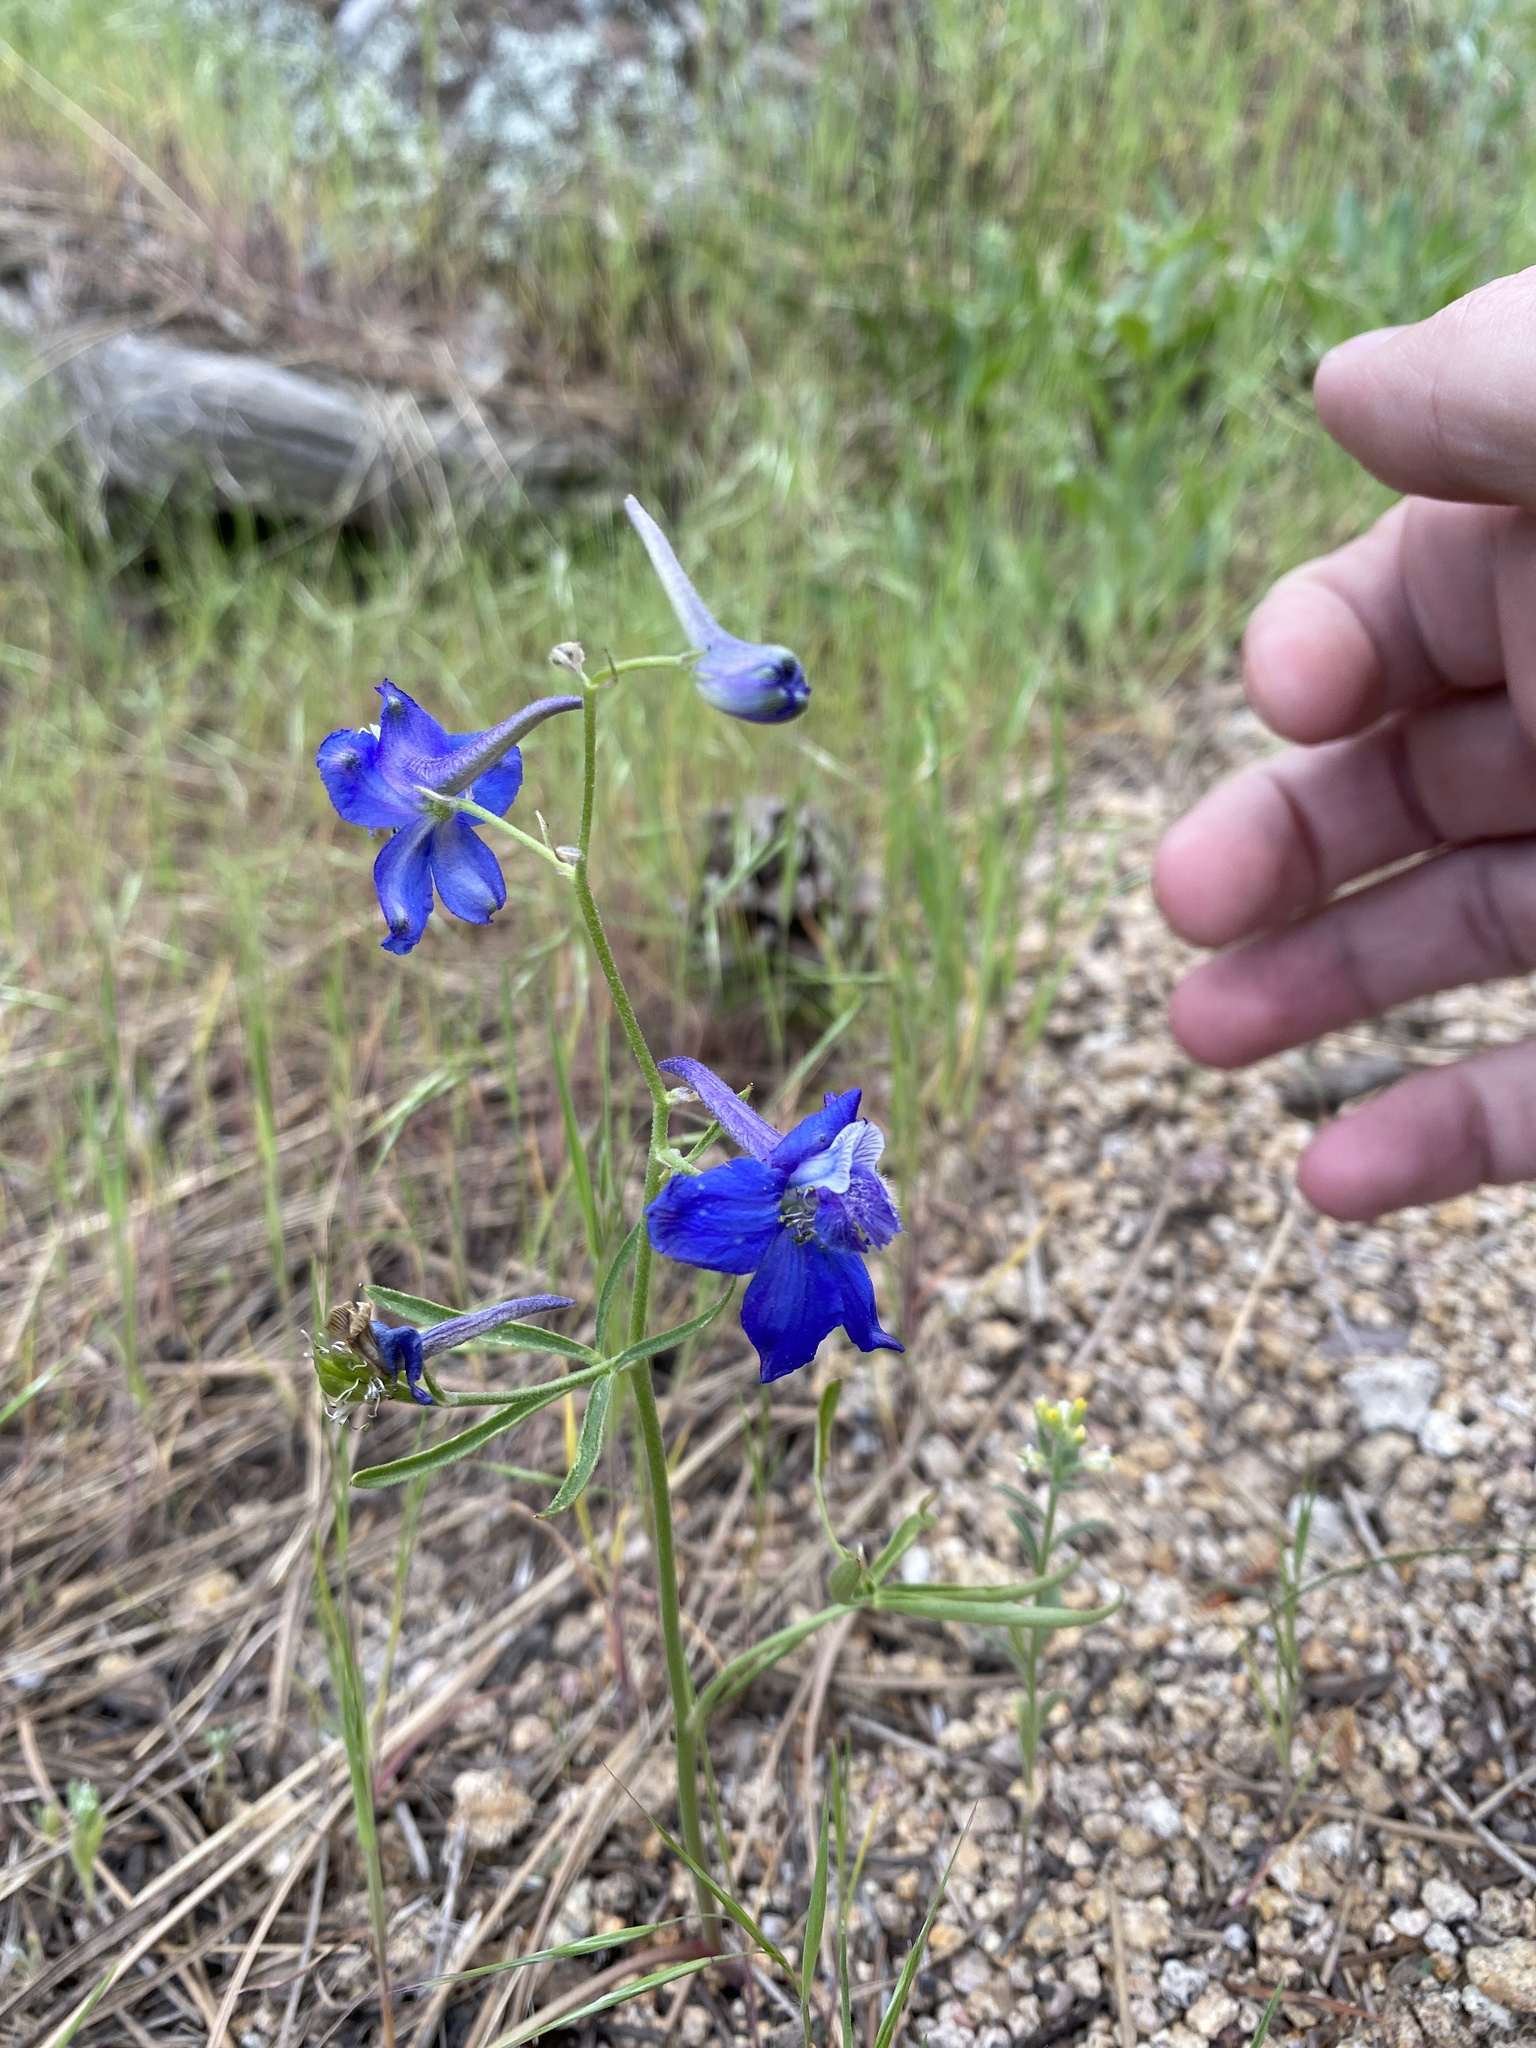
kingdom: Plantae
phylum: Tracheophyta
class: Magnoliopsida
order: Ranunculales
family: Ranunculaceae
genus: Delphinium
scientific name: Delphinium nuttallianum
